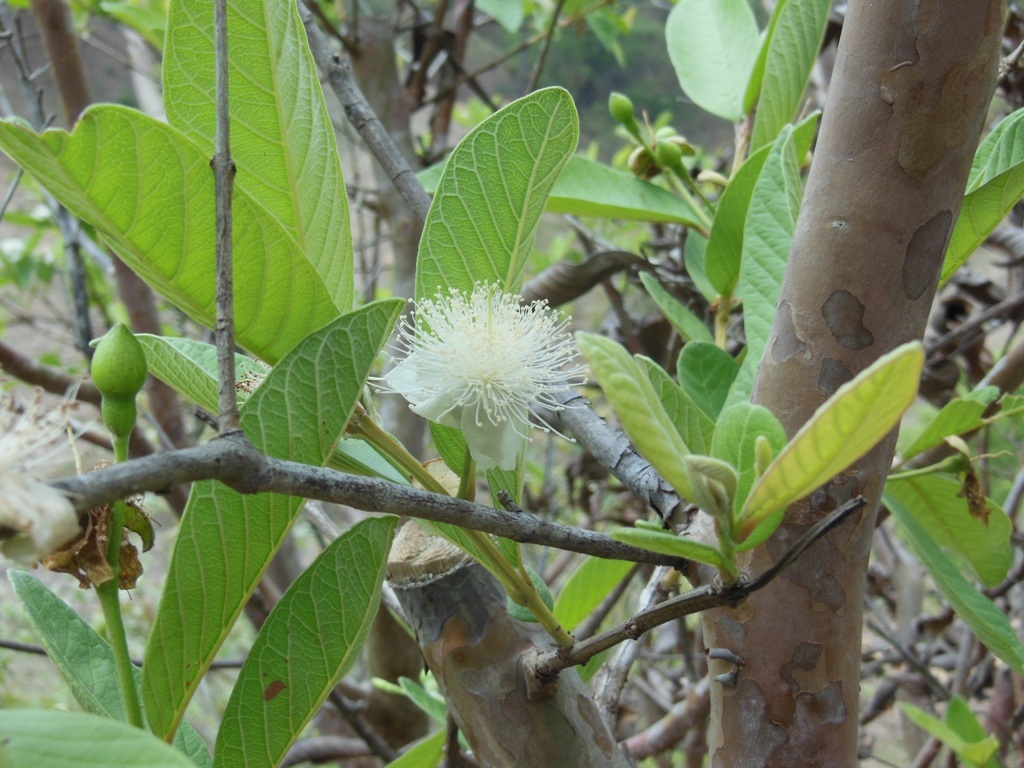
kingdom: Plantae
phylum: Tracheophyta
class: Magnoliopsida
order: Myrtales
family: Myrtaceae
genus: Psidium
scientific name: Psidium guajava
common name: Guava
